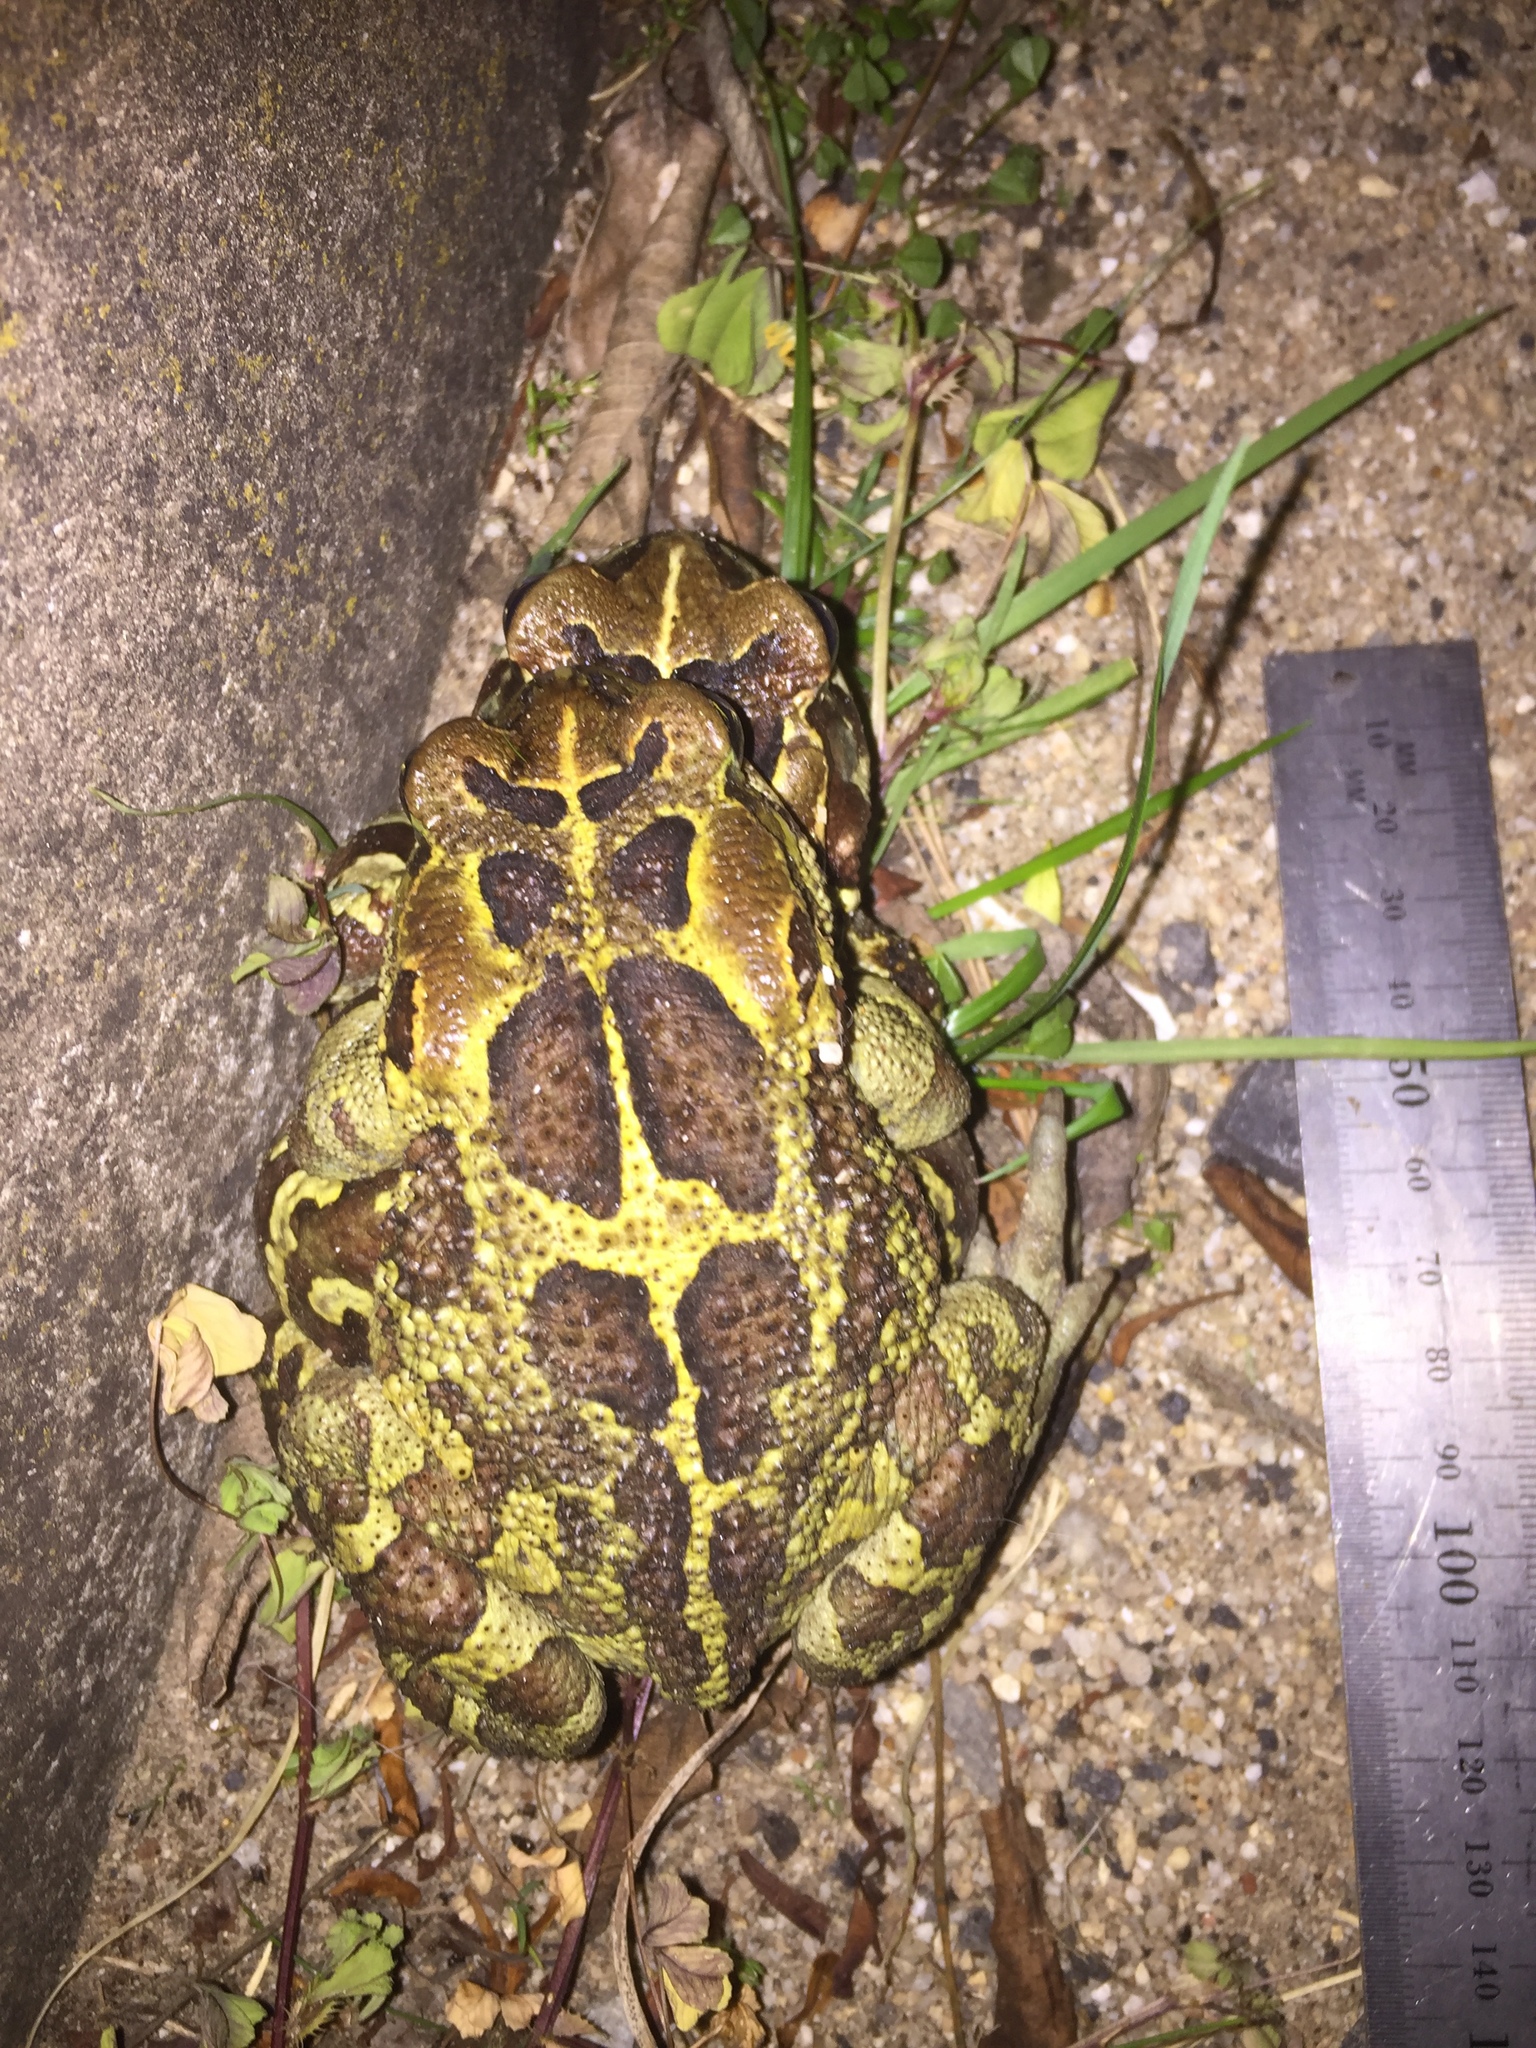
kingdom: Animalia
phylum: Chordata
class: Amphibia
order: Anura
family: Bufonidae
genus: Sclerophrys
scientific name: Sclerophrys pantherina
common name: Panther toad
